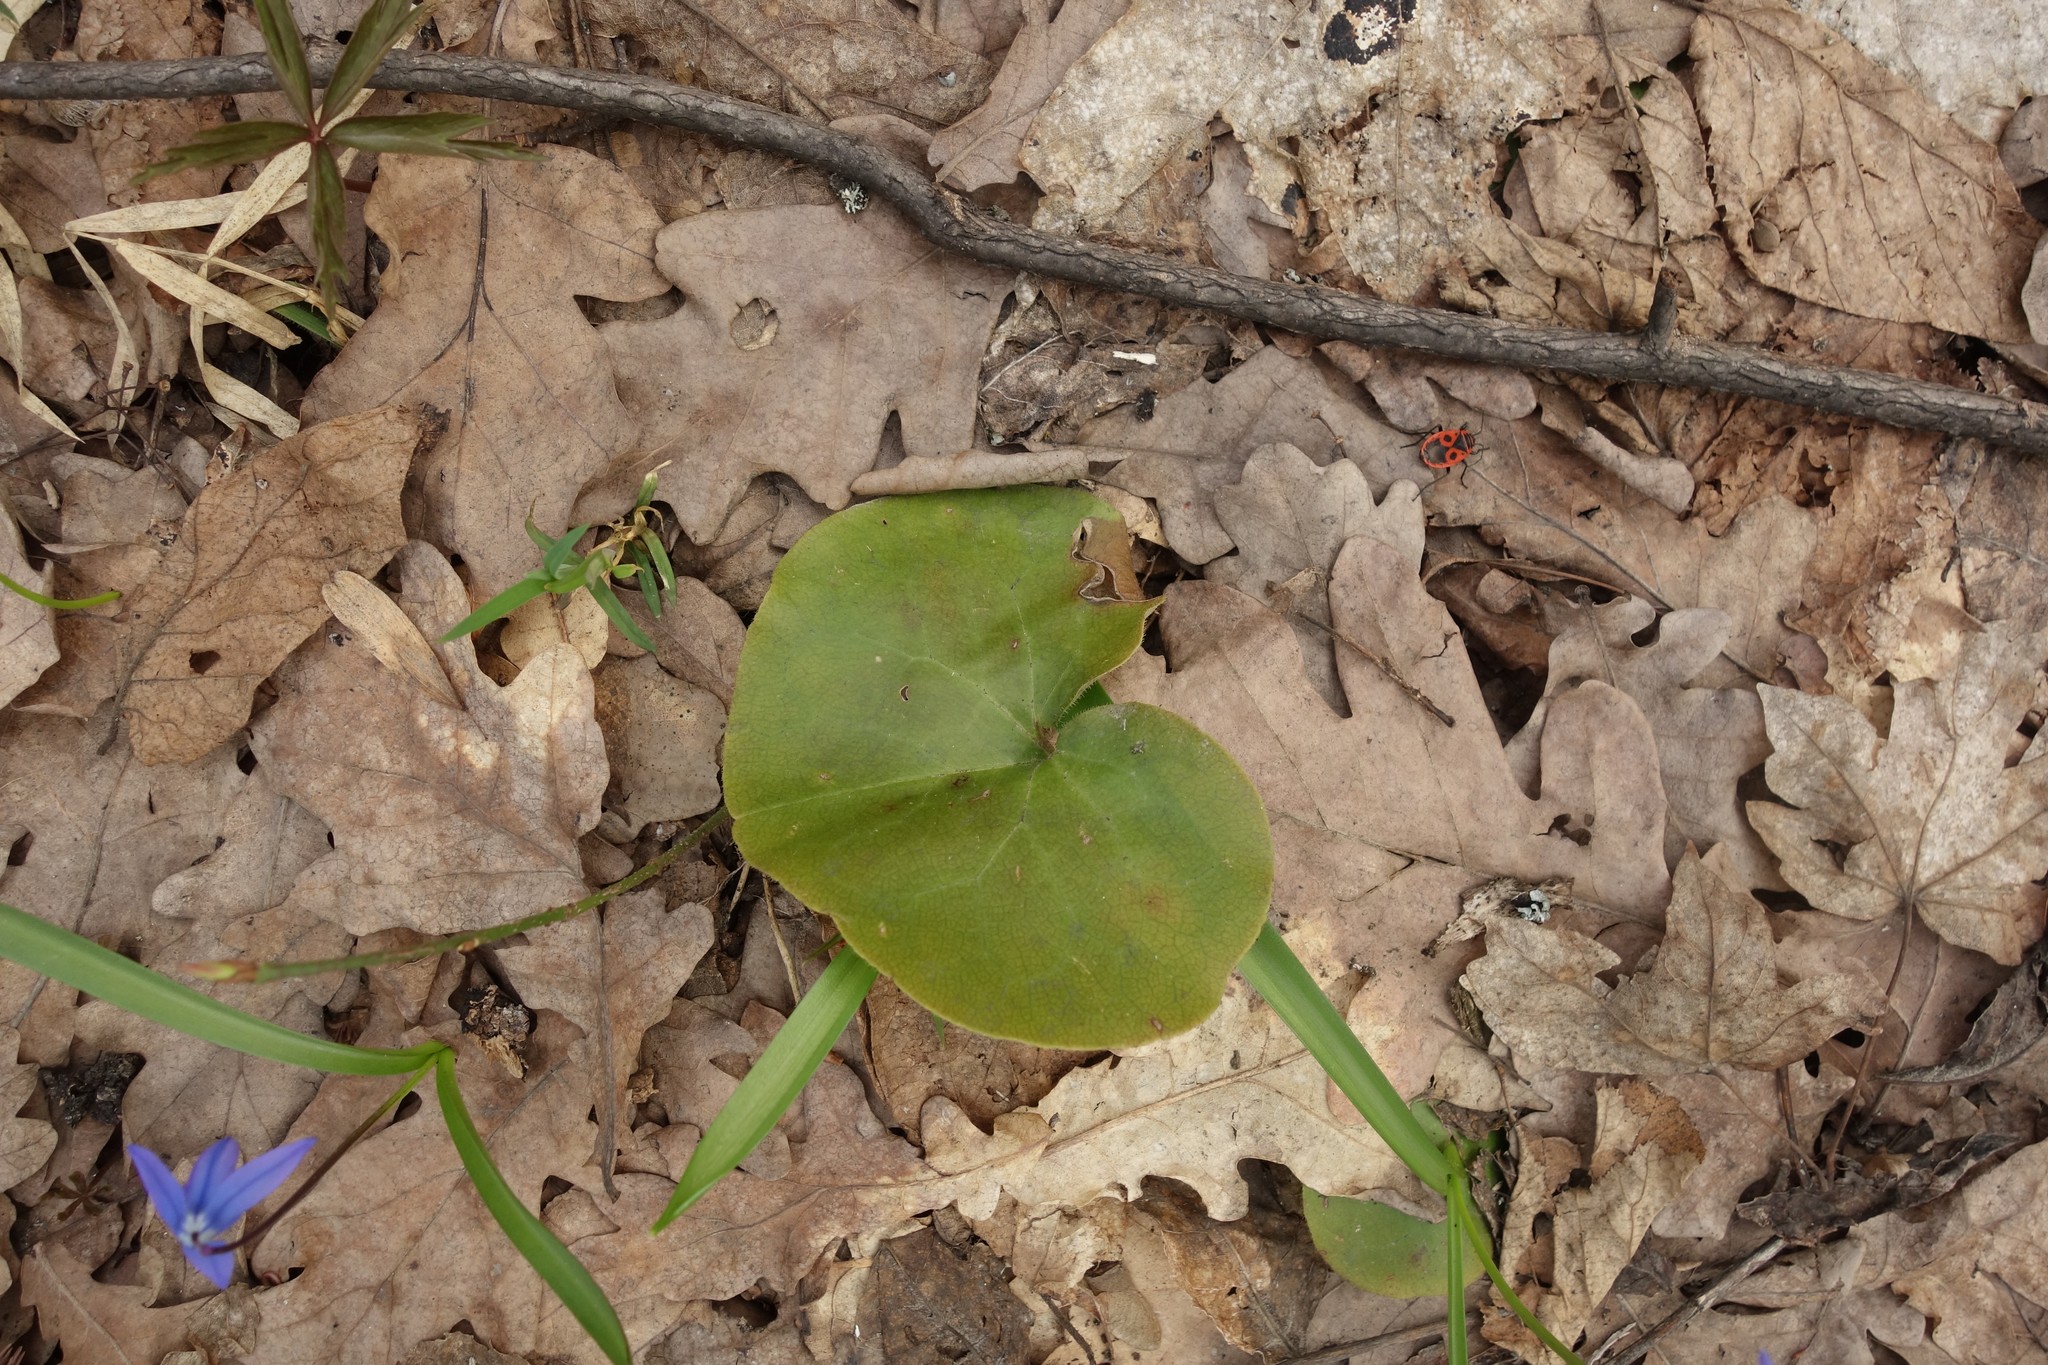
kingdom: Plantae
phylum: Tracheophyta
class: Magnoliopsida
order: Piperales
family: Aristolochiaceae
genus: Asarum
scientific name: Asarum europaeum
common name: Asarabacca
